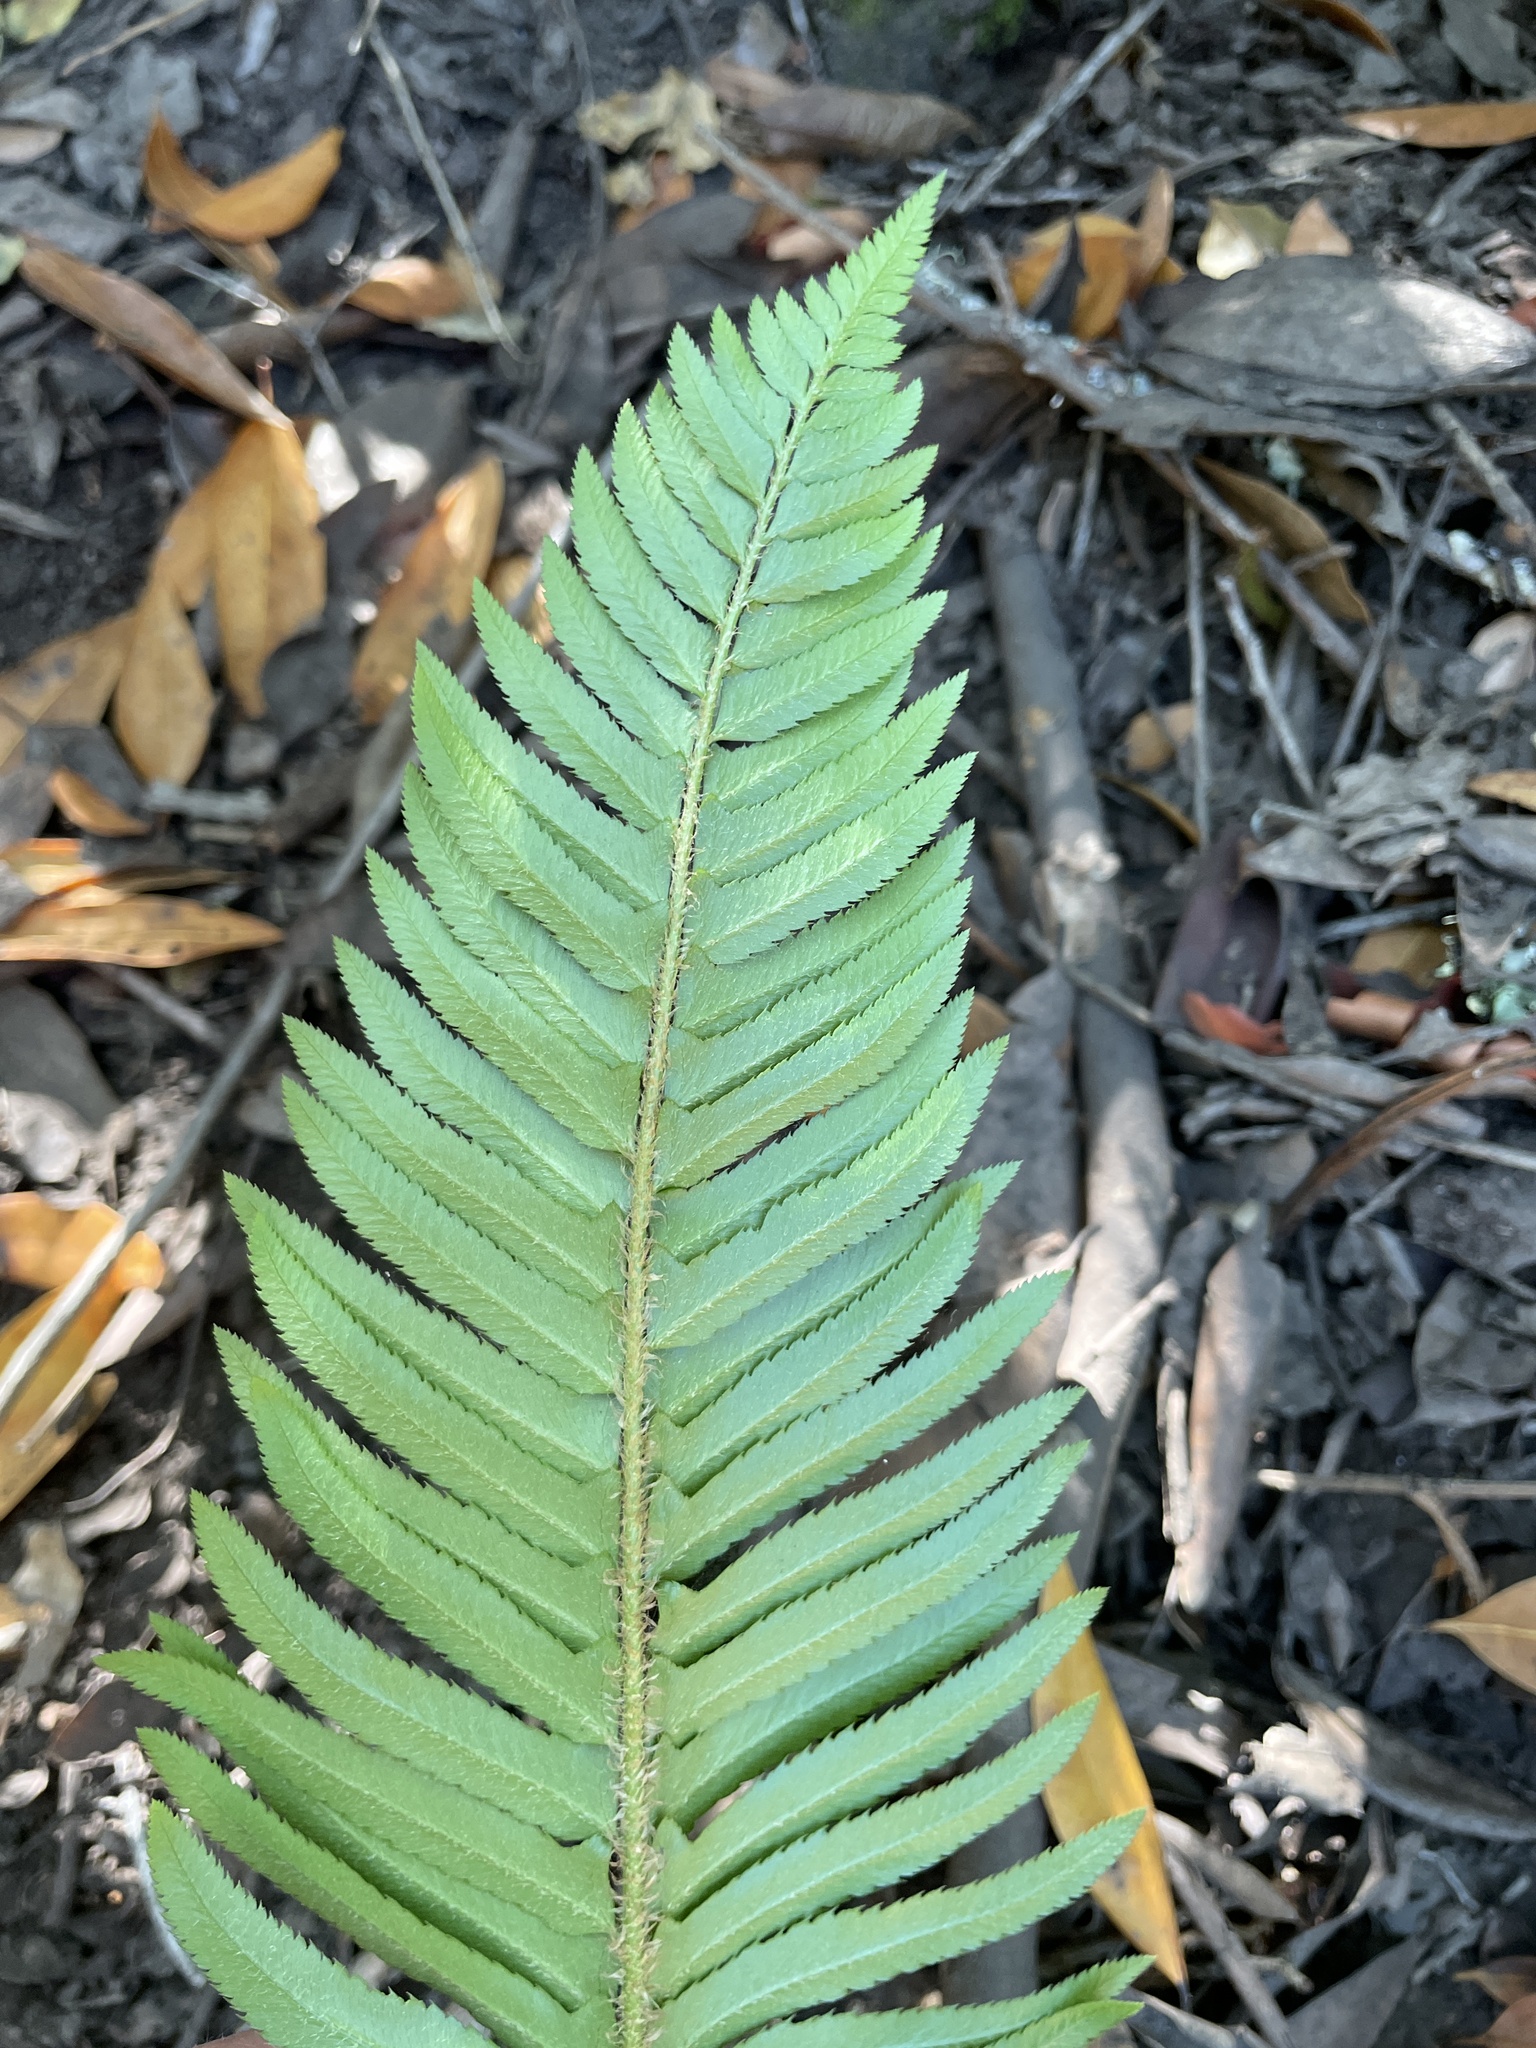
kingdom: Plantae
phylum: Tracheophyta
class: Polypodiopsida
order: Polypodiales
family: Dryopteridaceae
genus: Polystichum
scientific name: Polystichum munitum
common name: Western sword-fern
